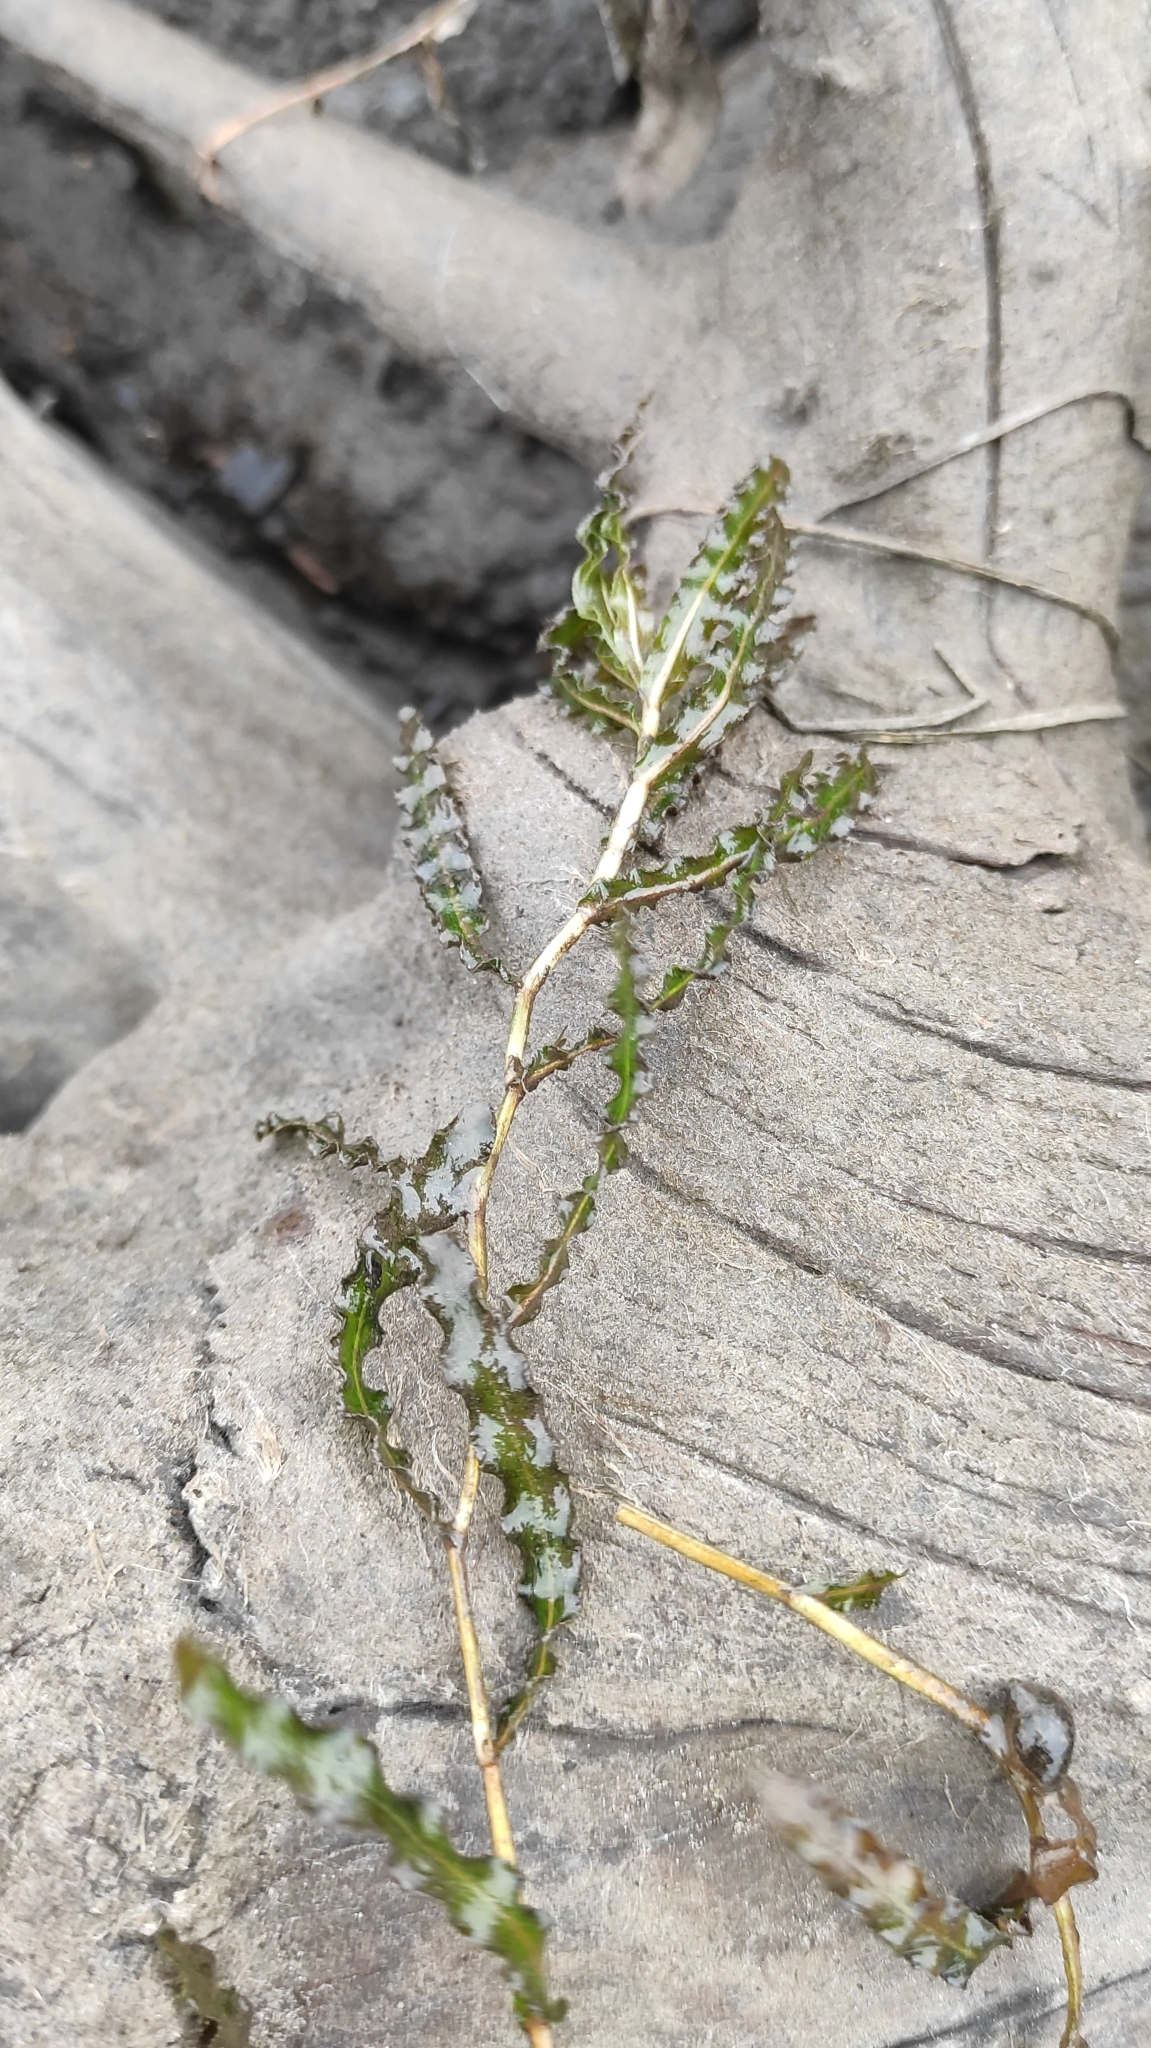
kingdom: Plantae
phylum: Tracheophyta
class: Liliopsida
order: Alismatales
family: Potamogetonaceae
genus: Potamogeton
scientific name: Potamogeton crispus
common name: Curled pondweed
